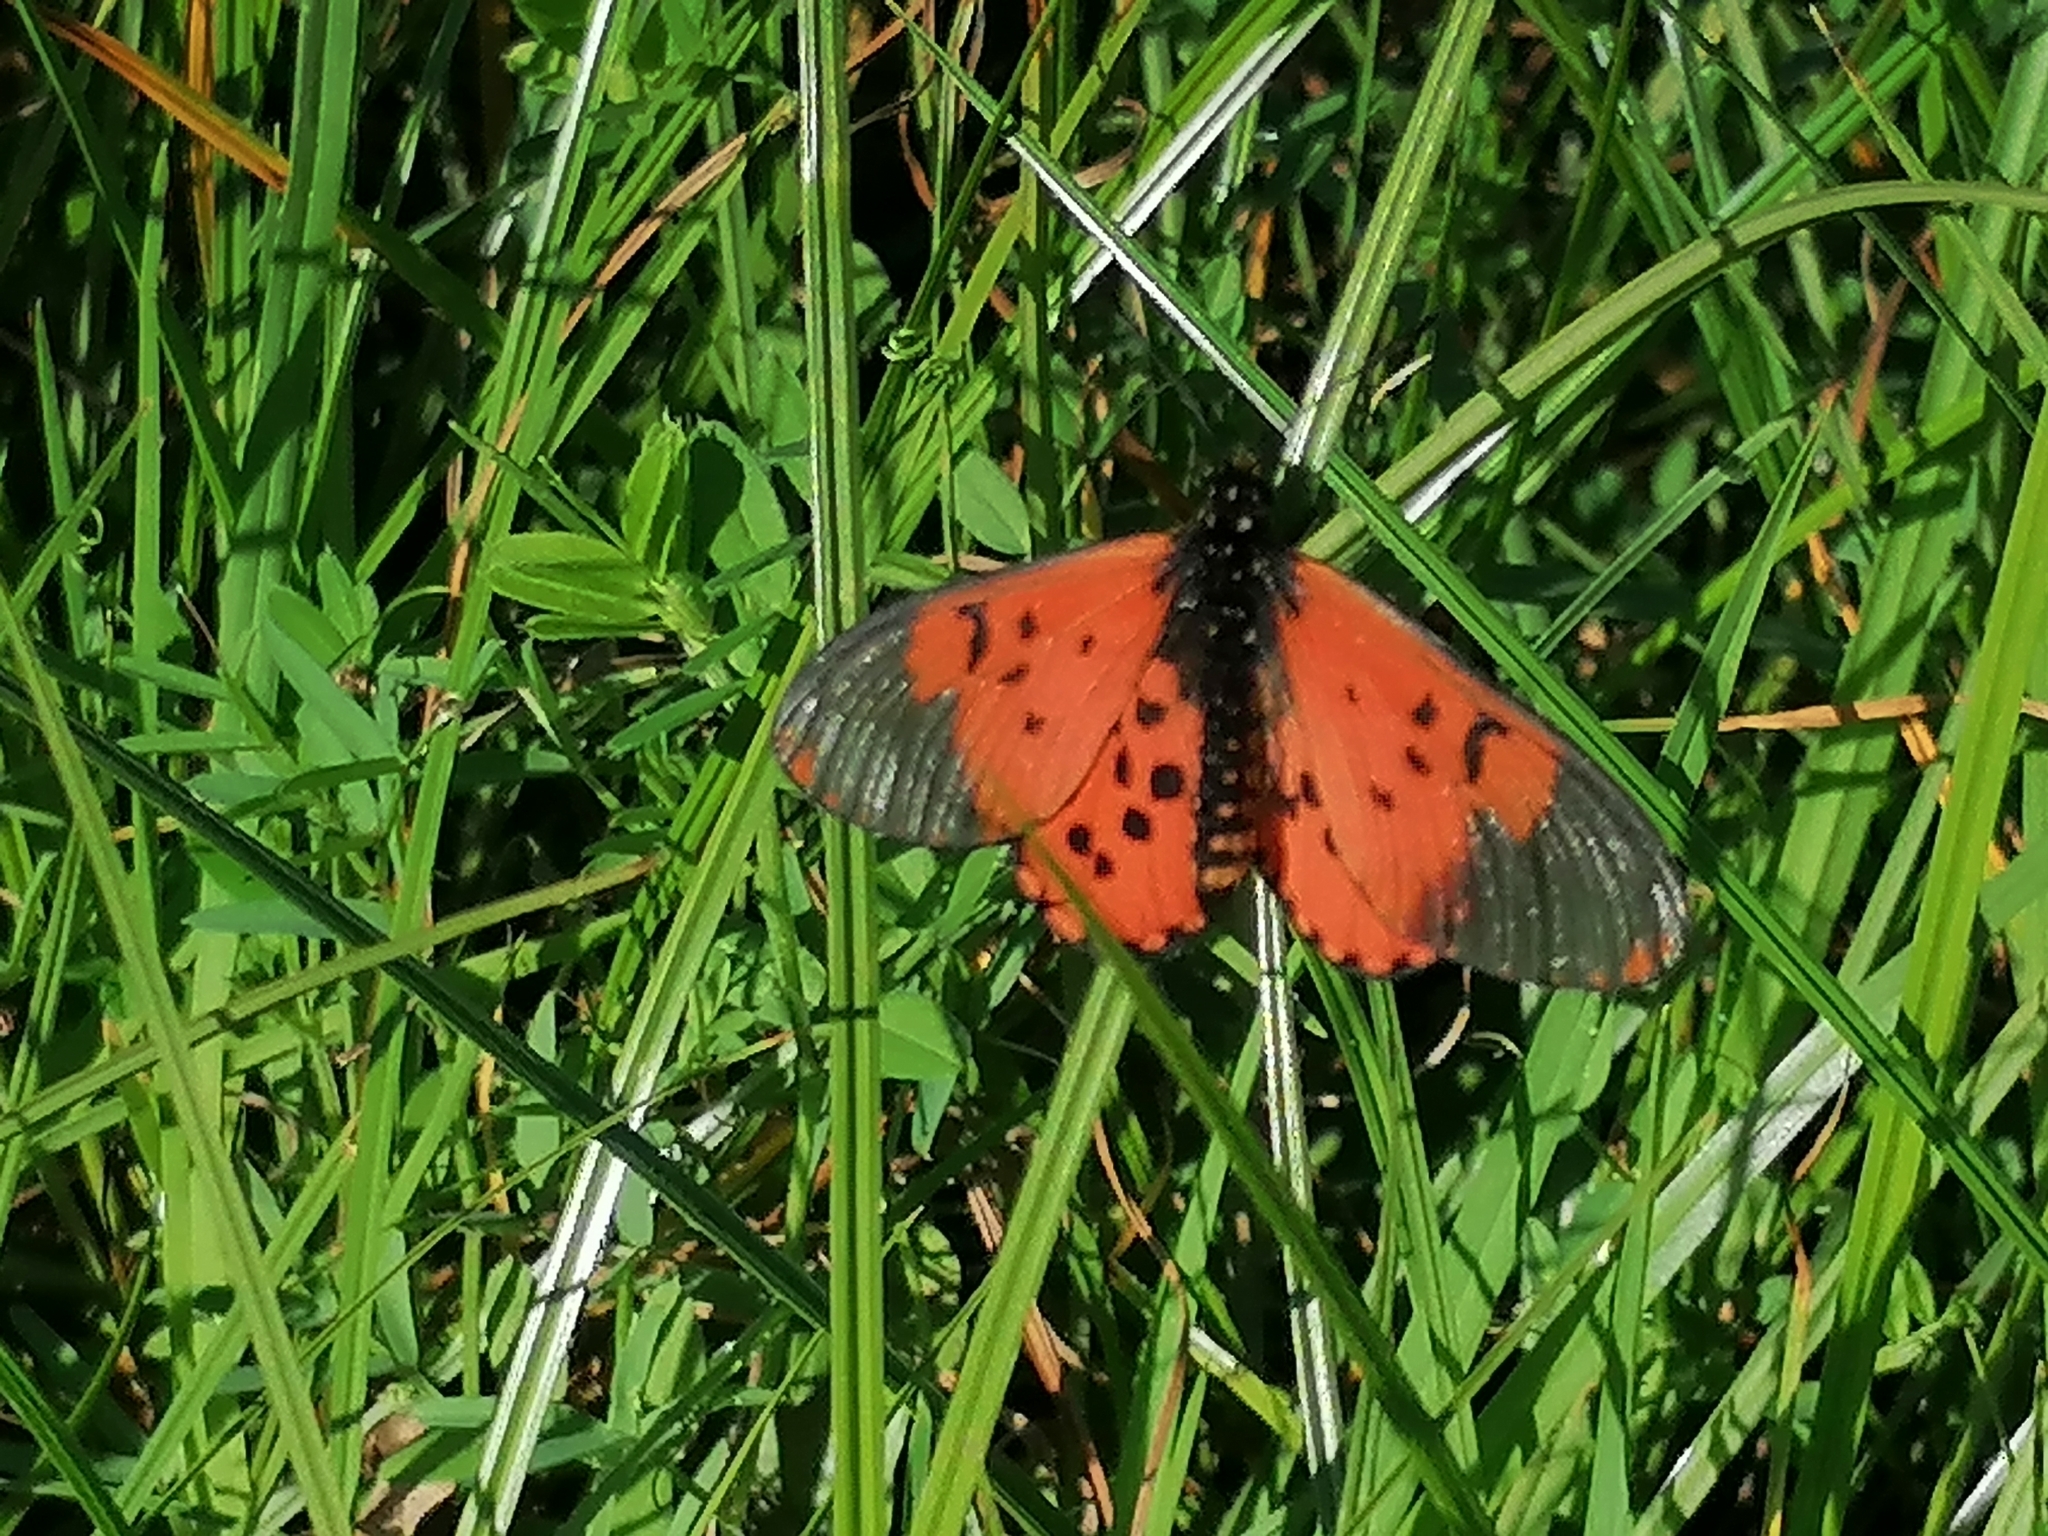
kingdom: Animalia
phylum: Arthropoda
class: Insecta
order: Lepidoptera
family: Nymphalidae
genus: Acraea
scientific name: Acraea horta
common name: Garden acraea
